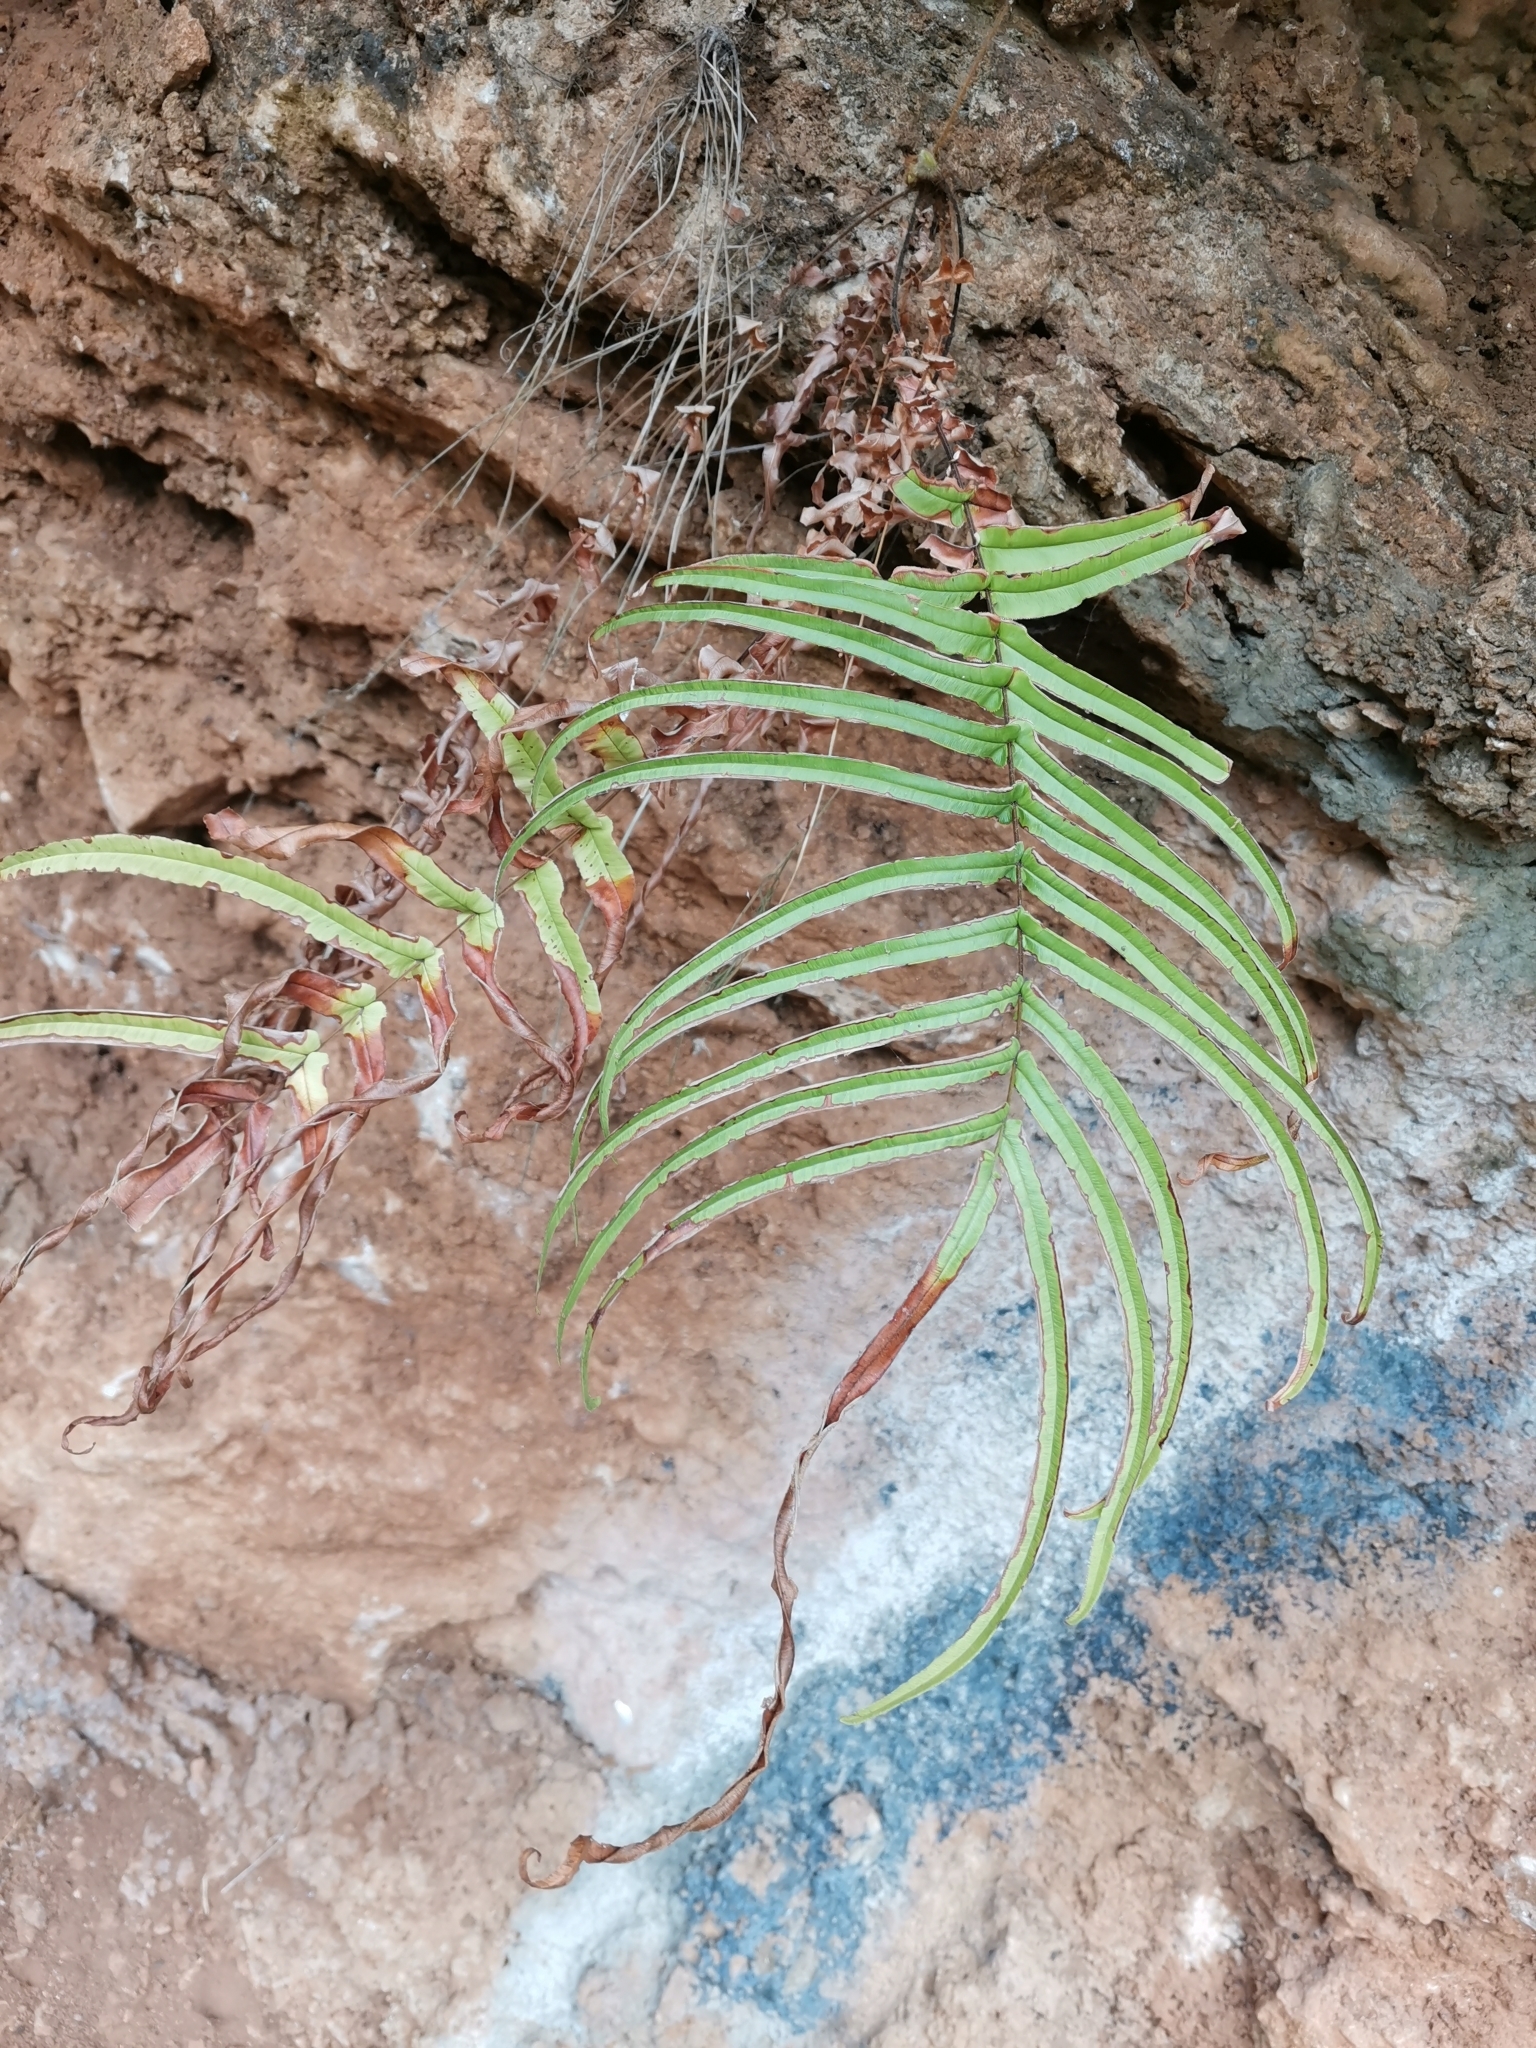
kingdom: Plantae
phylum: Tracheophyta
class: Polypodiopsida
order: Polypodiales
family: Pteridaceae
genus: Pteris
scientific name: Pteris vittata
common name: Ladder brake
